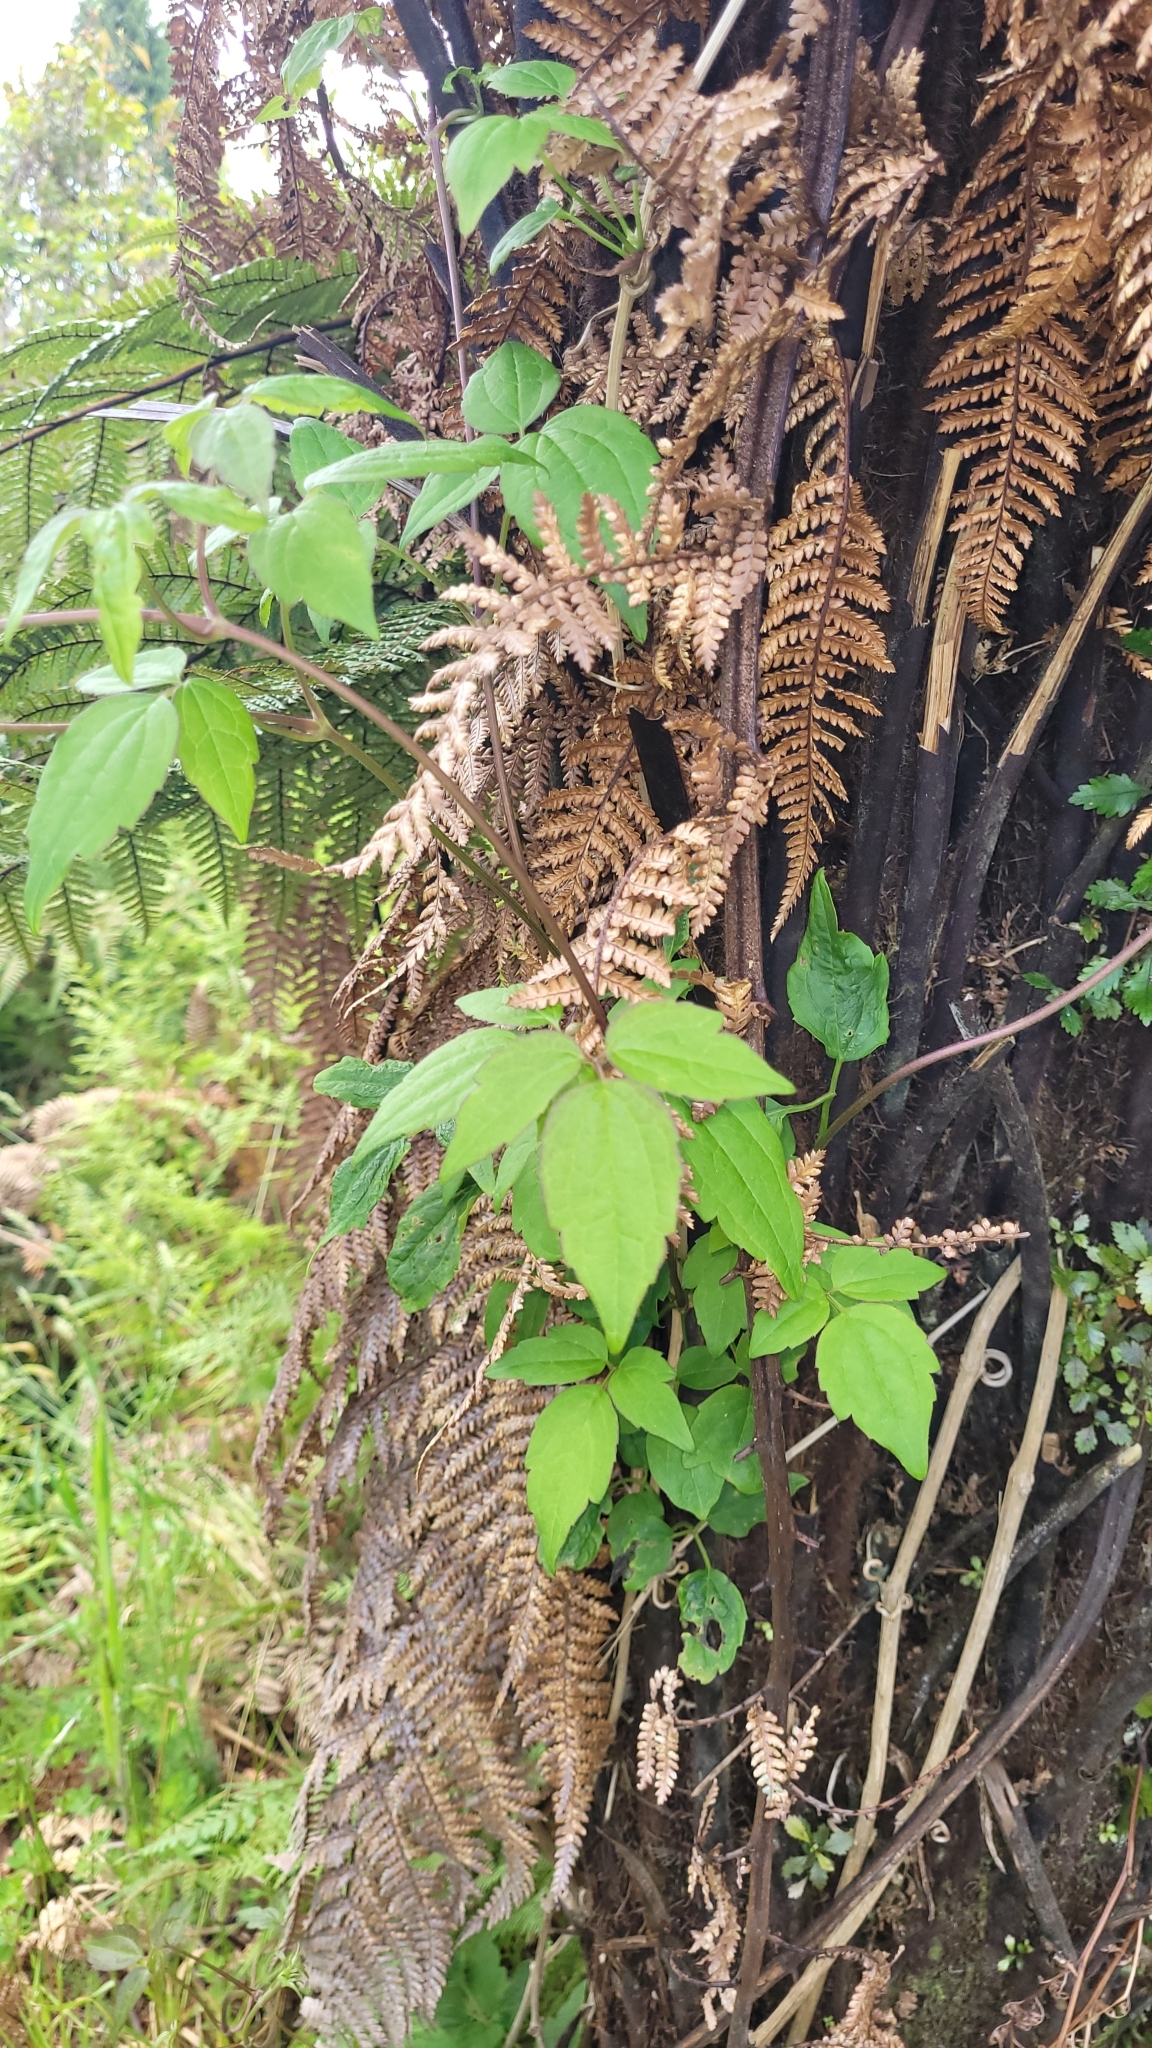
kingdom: Plantae
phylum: Tracheophyta
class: Magnoliopsida
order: Ranunculales
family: Ranunculaceae
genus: Clematis
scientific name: Clematis vitalba
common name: Evergreen clematis
